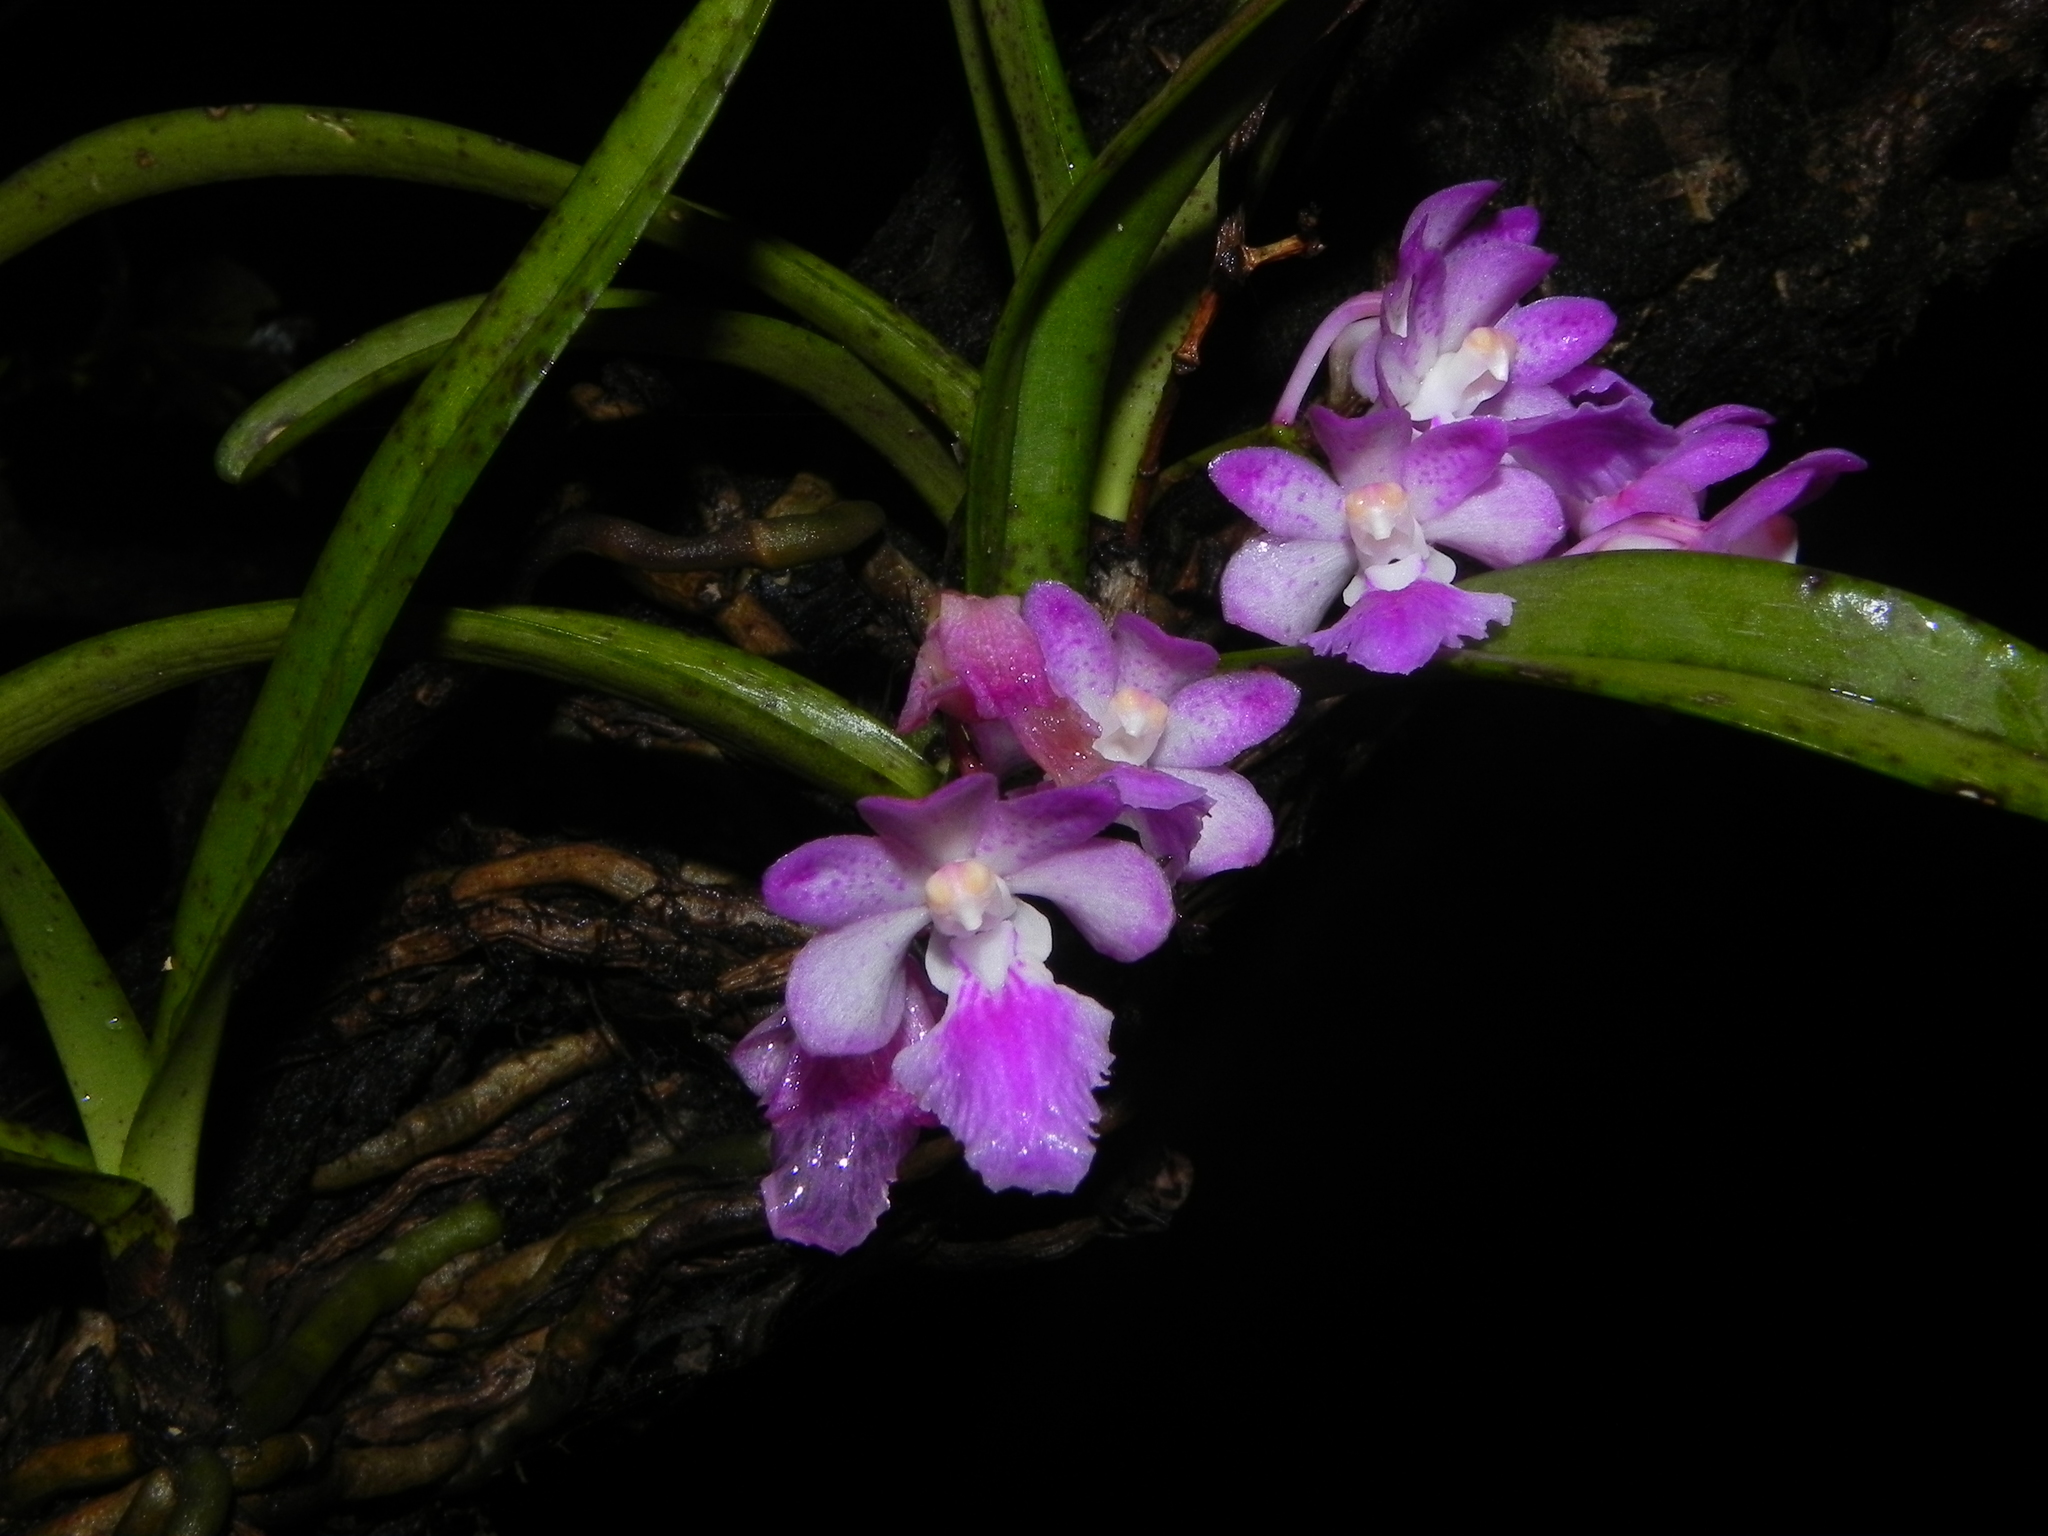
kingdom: Plantae
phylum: Tracheophyta
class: Liliopsida
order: Asparagales
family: Orchidaceae
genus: Aerides
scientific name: Aerides maculosa
